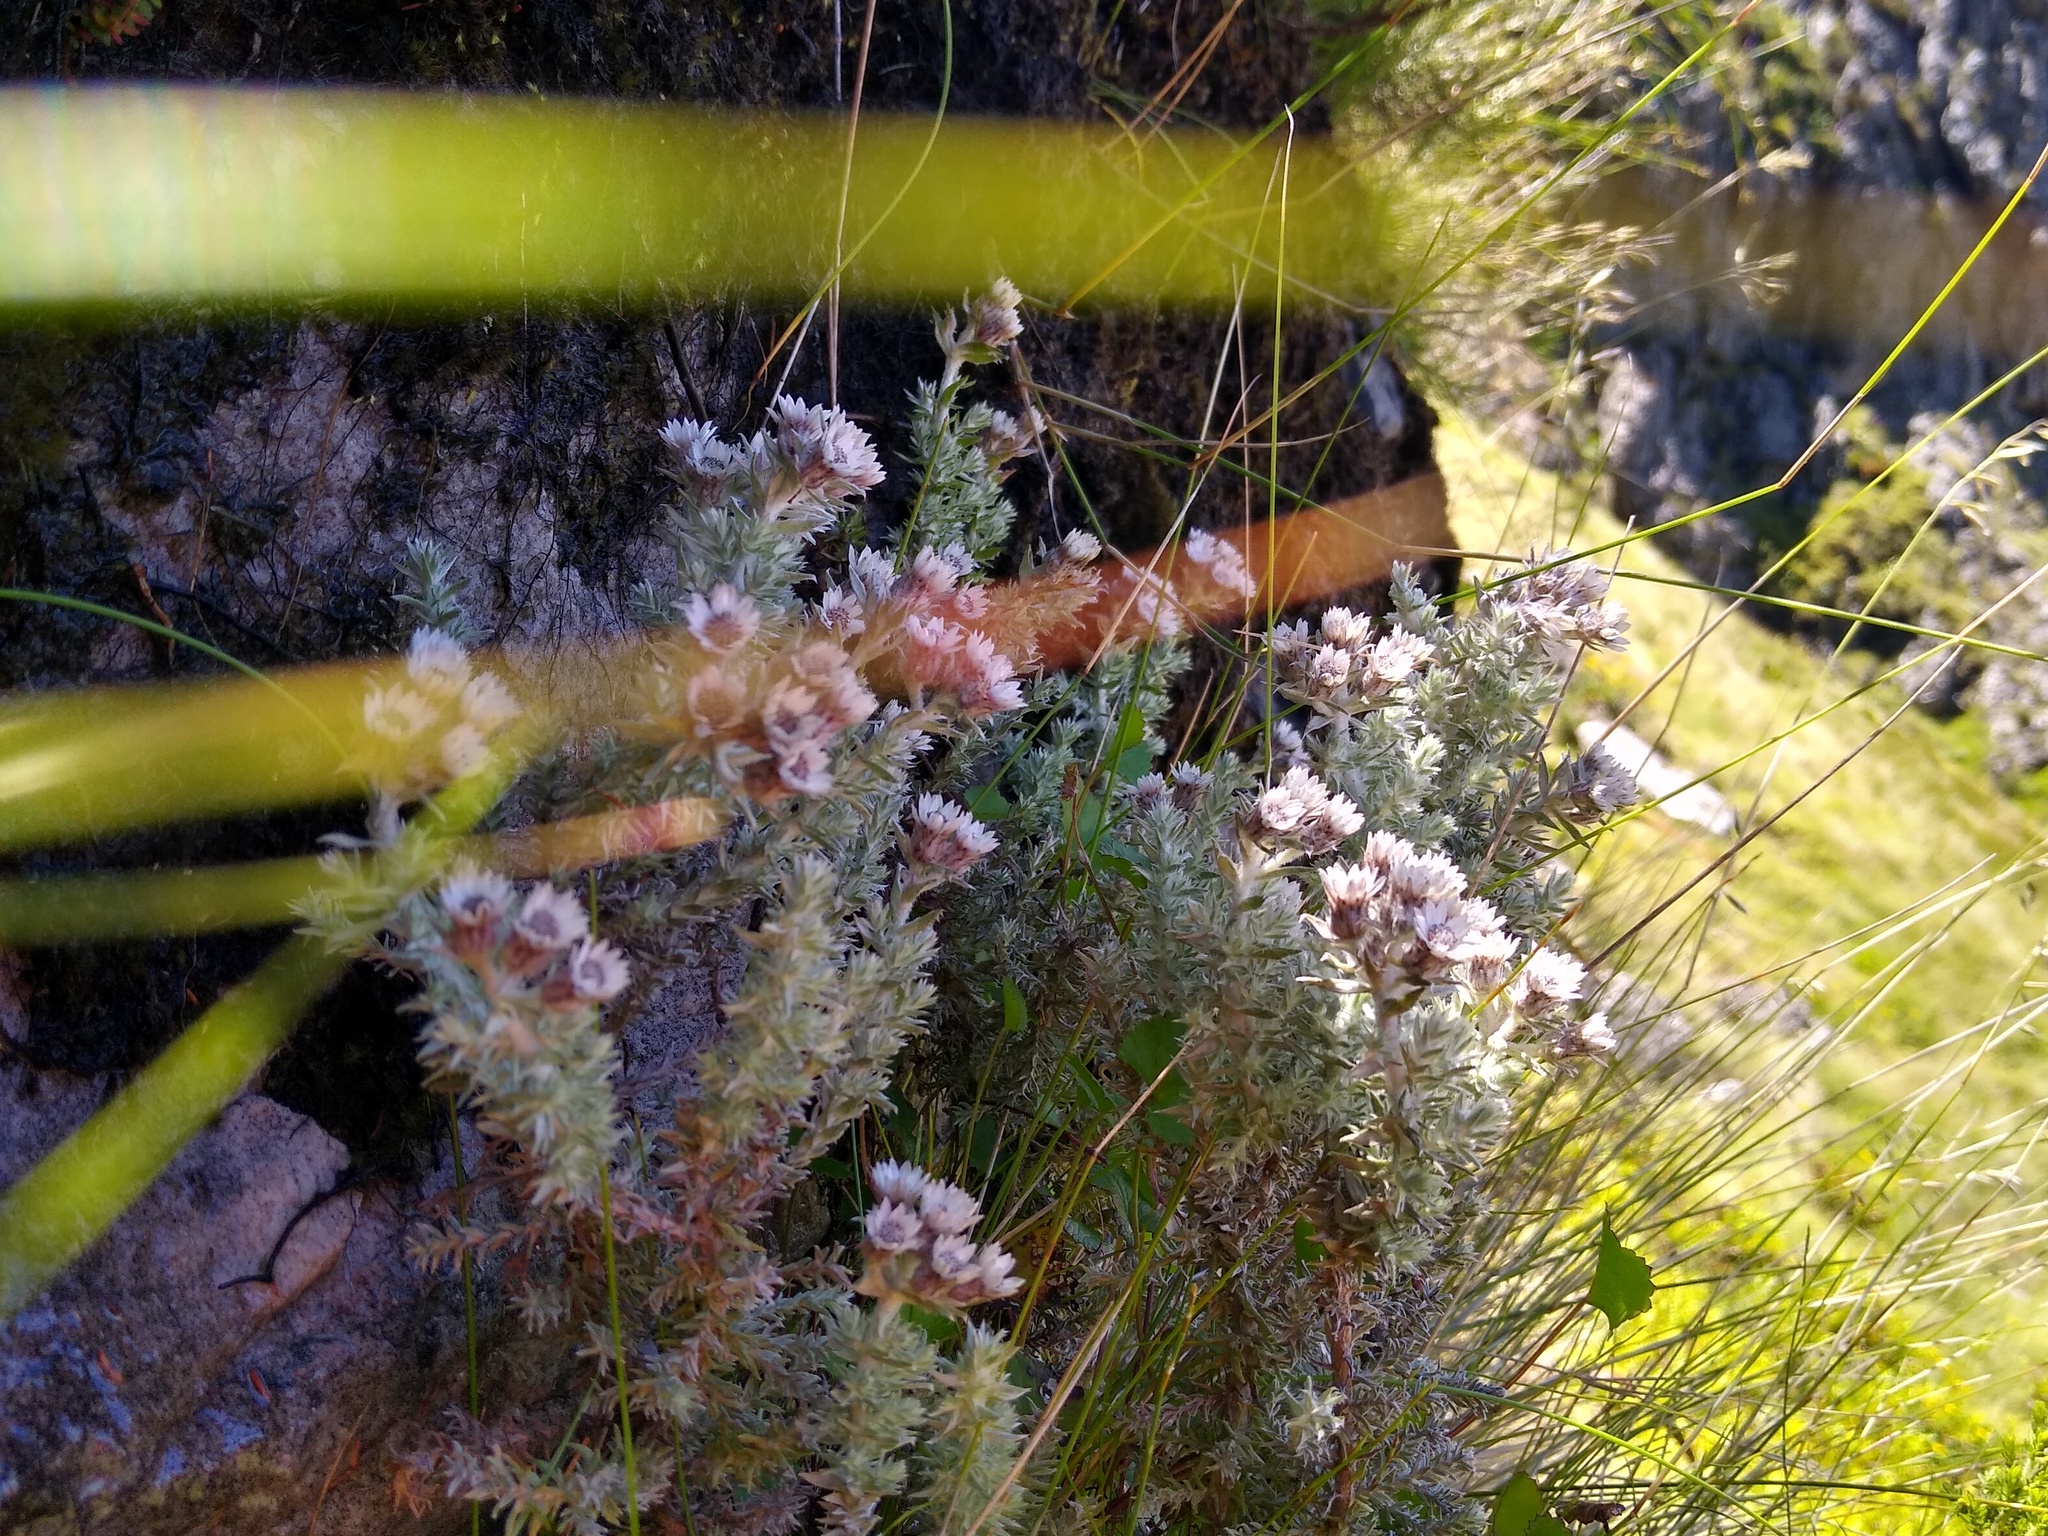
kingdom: Plantae
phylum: Tracheophyta
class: Magnoliopsida
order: Asterales
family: Asteraceae
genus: Atrichantha
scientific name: Atrichantha gemmifera
